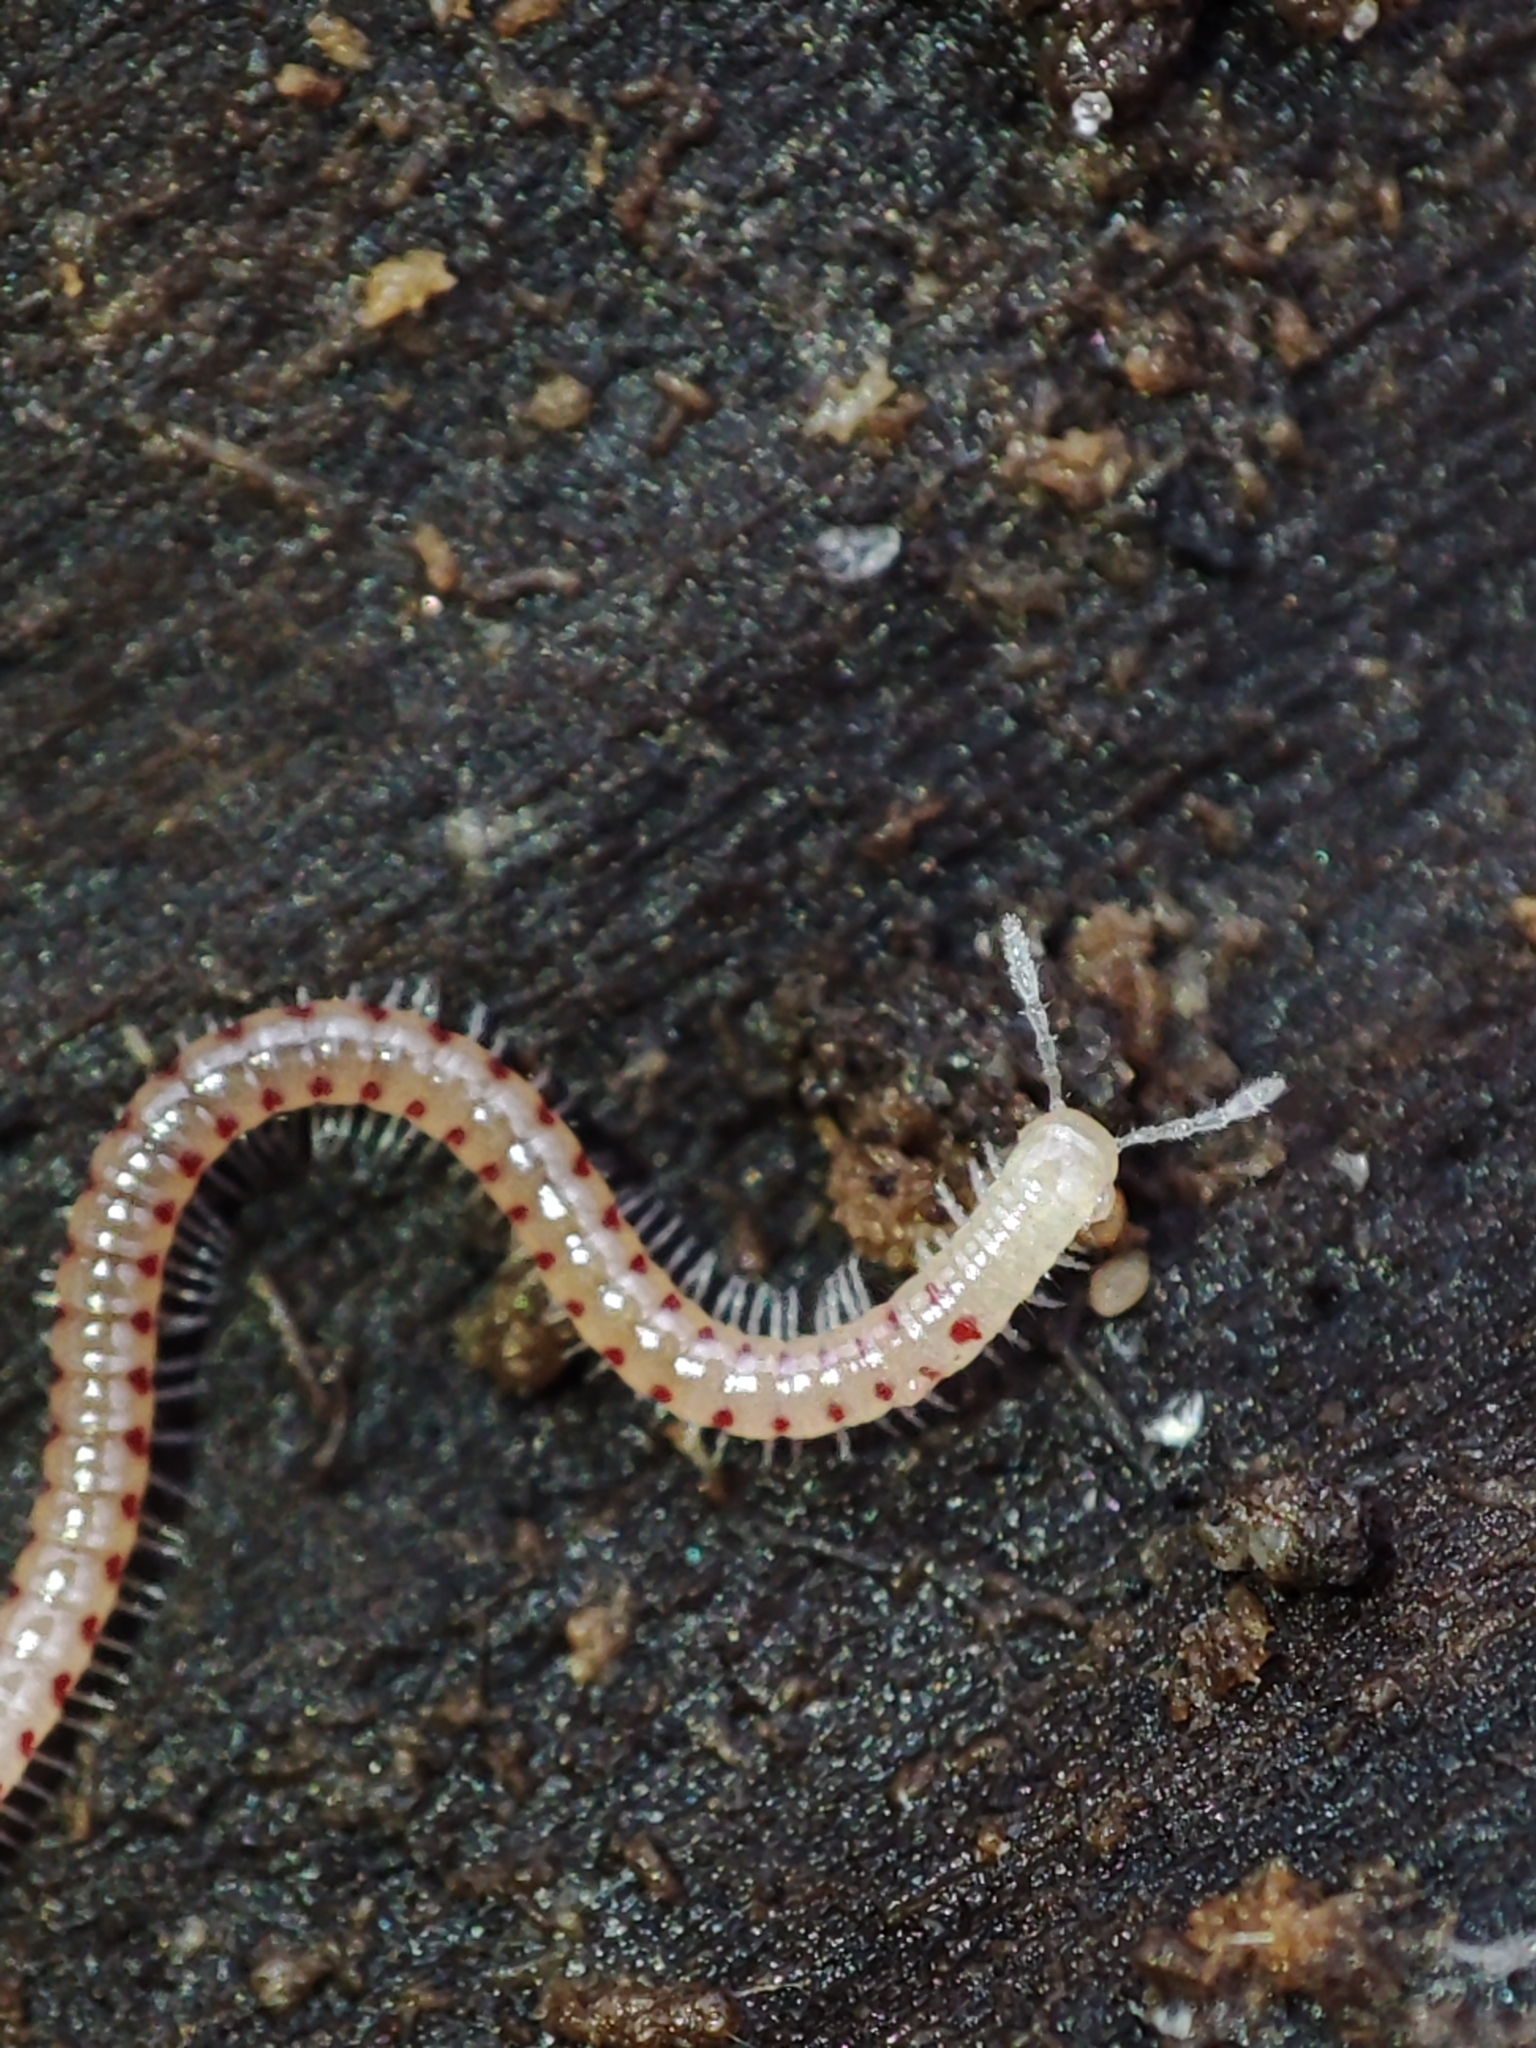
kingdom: Animalia
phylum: Arthropoda
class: Diplopoda
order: Julida
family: Blaniulidae
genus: Blaniulus
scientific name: Blaniulus guttulatus
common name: Spotted snake millipede
